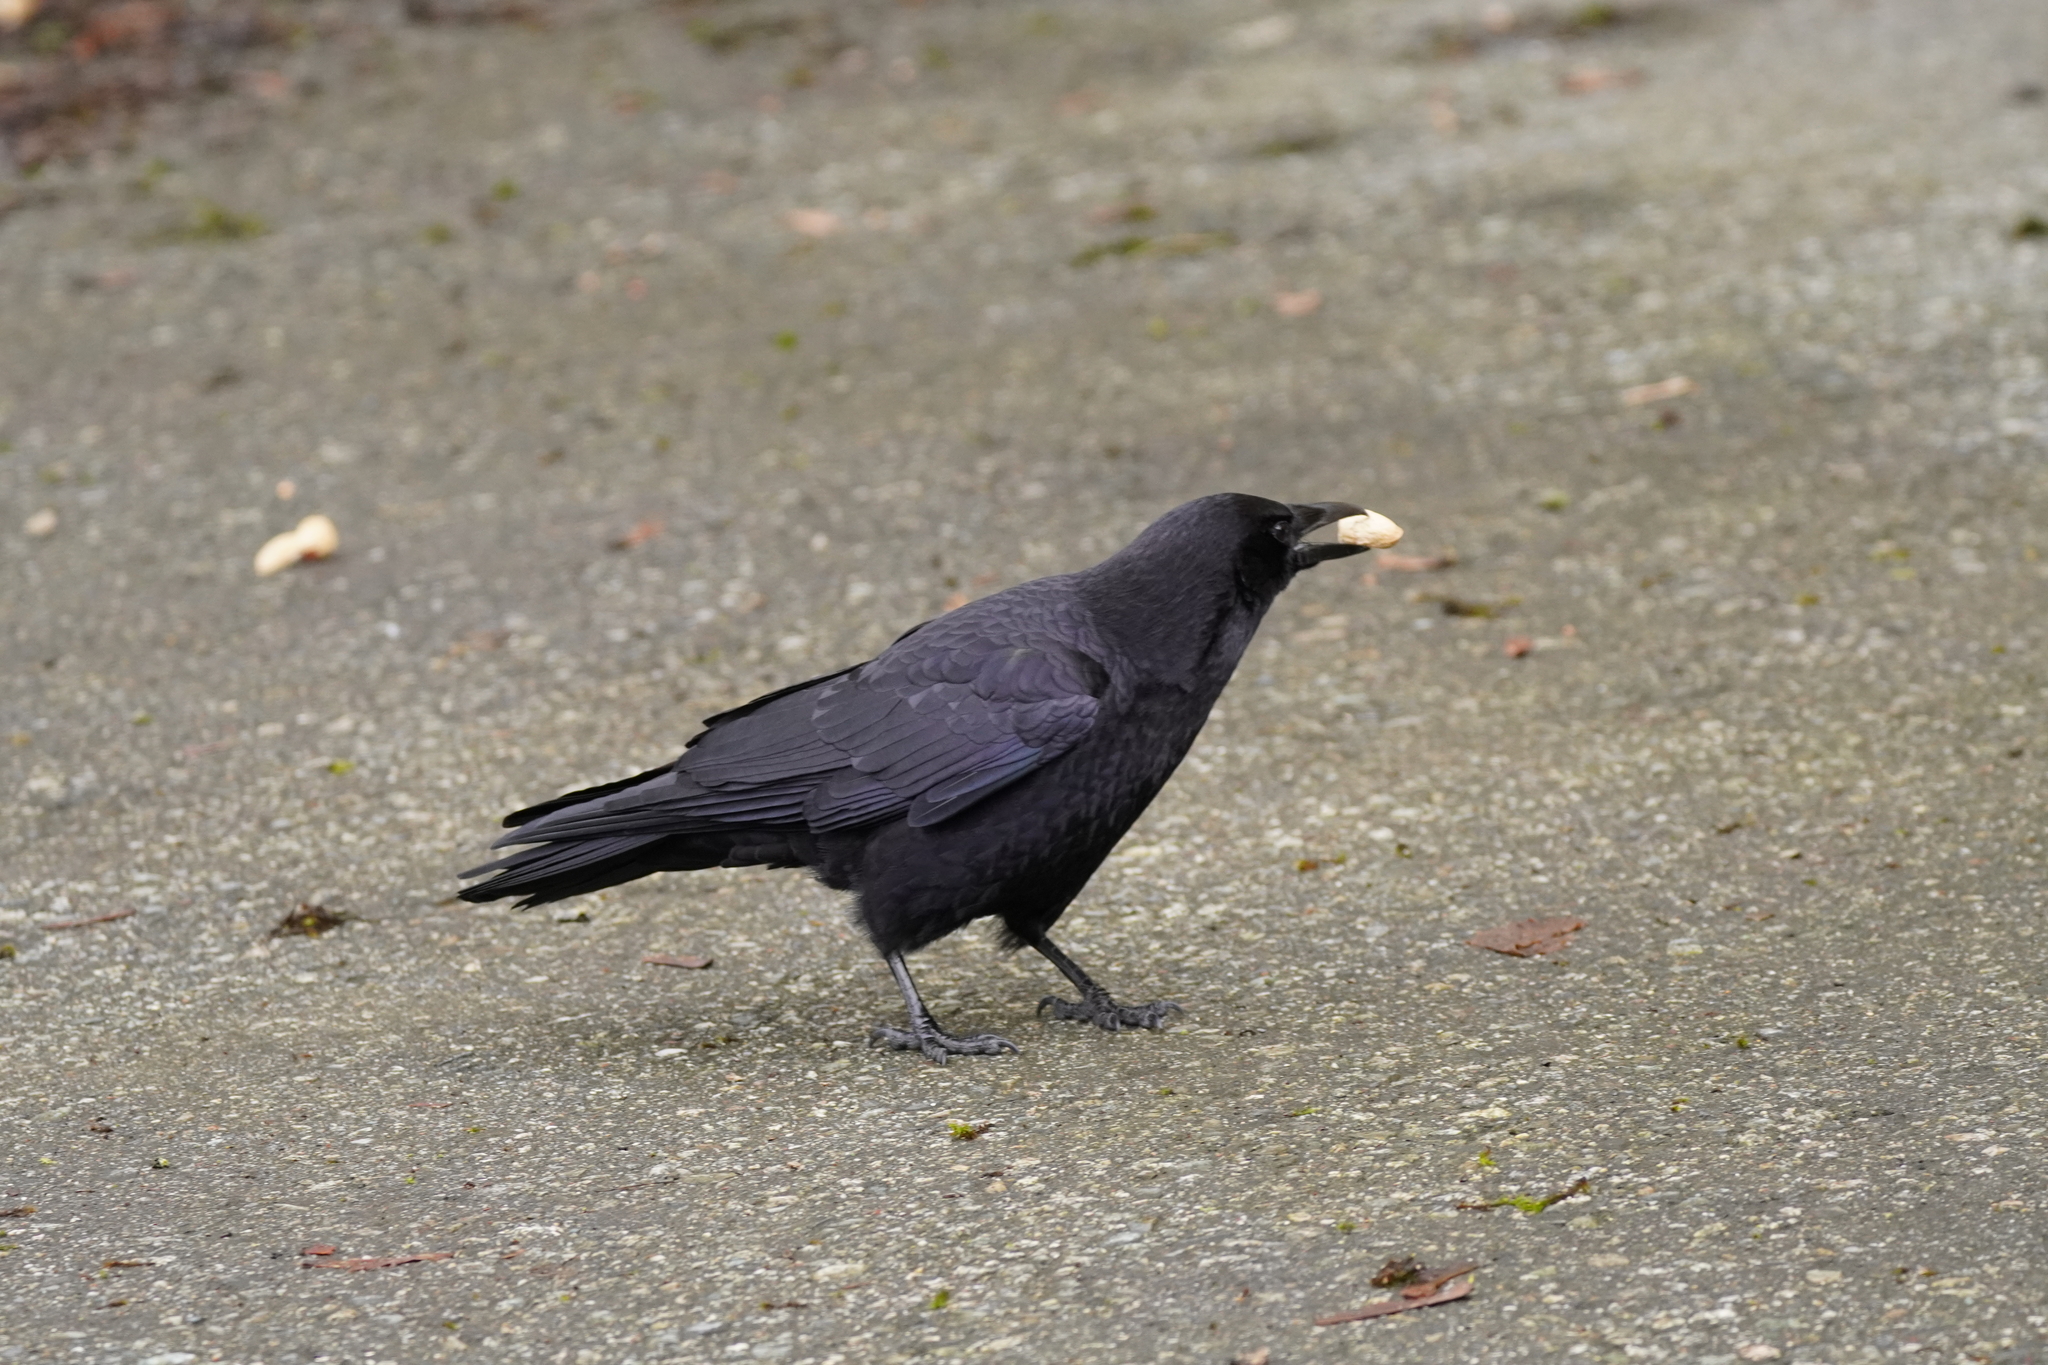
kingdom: Animalia
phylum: Chordata
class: Aves
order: Passeriformes
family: Corvidae
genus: Corvus
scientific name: Corvus brachyrhynchos
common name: American crow
